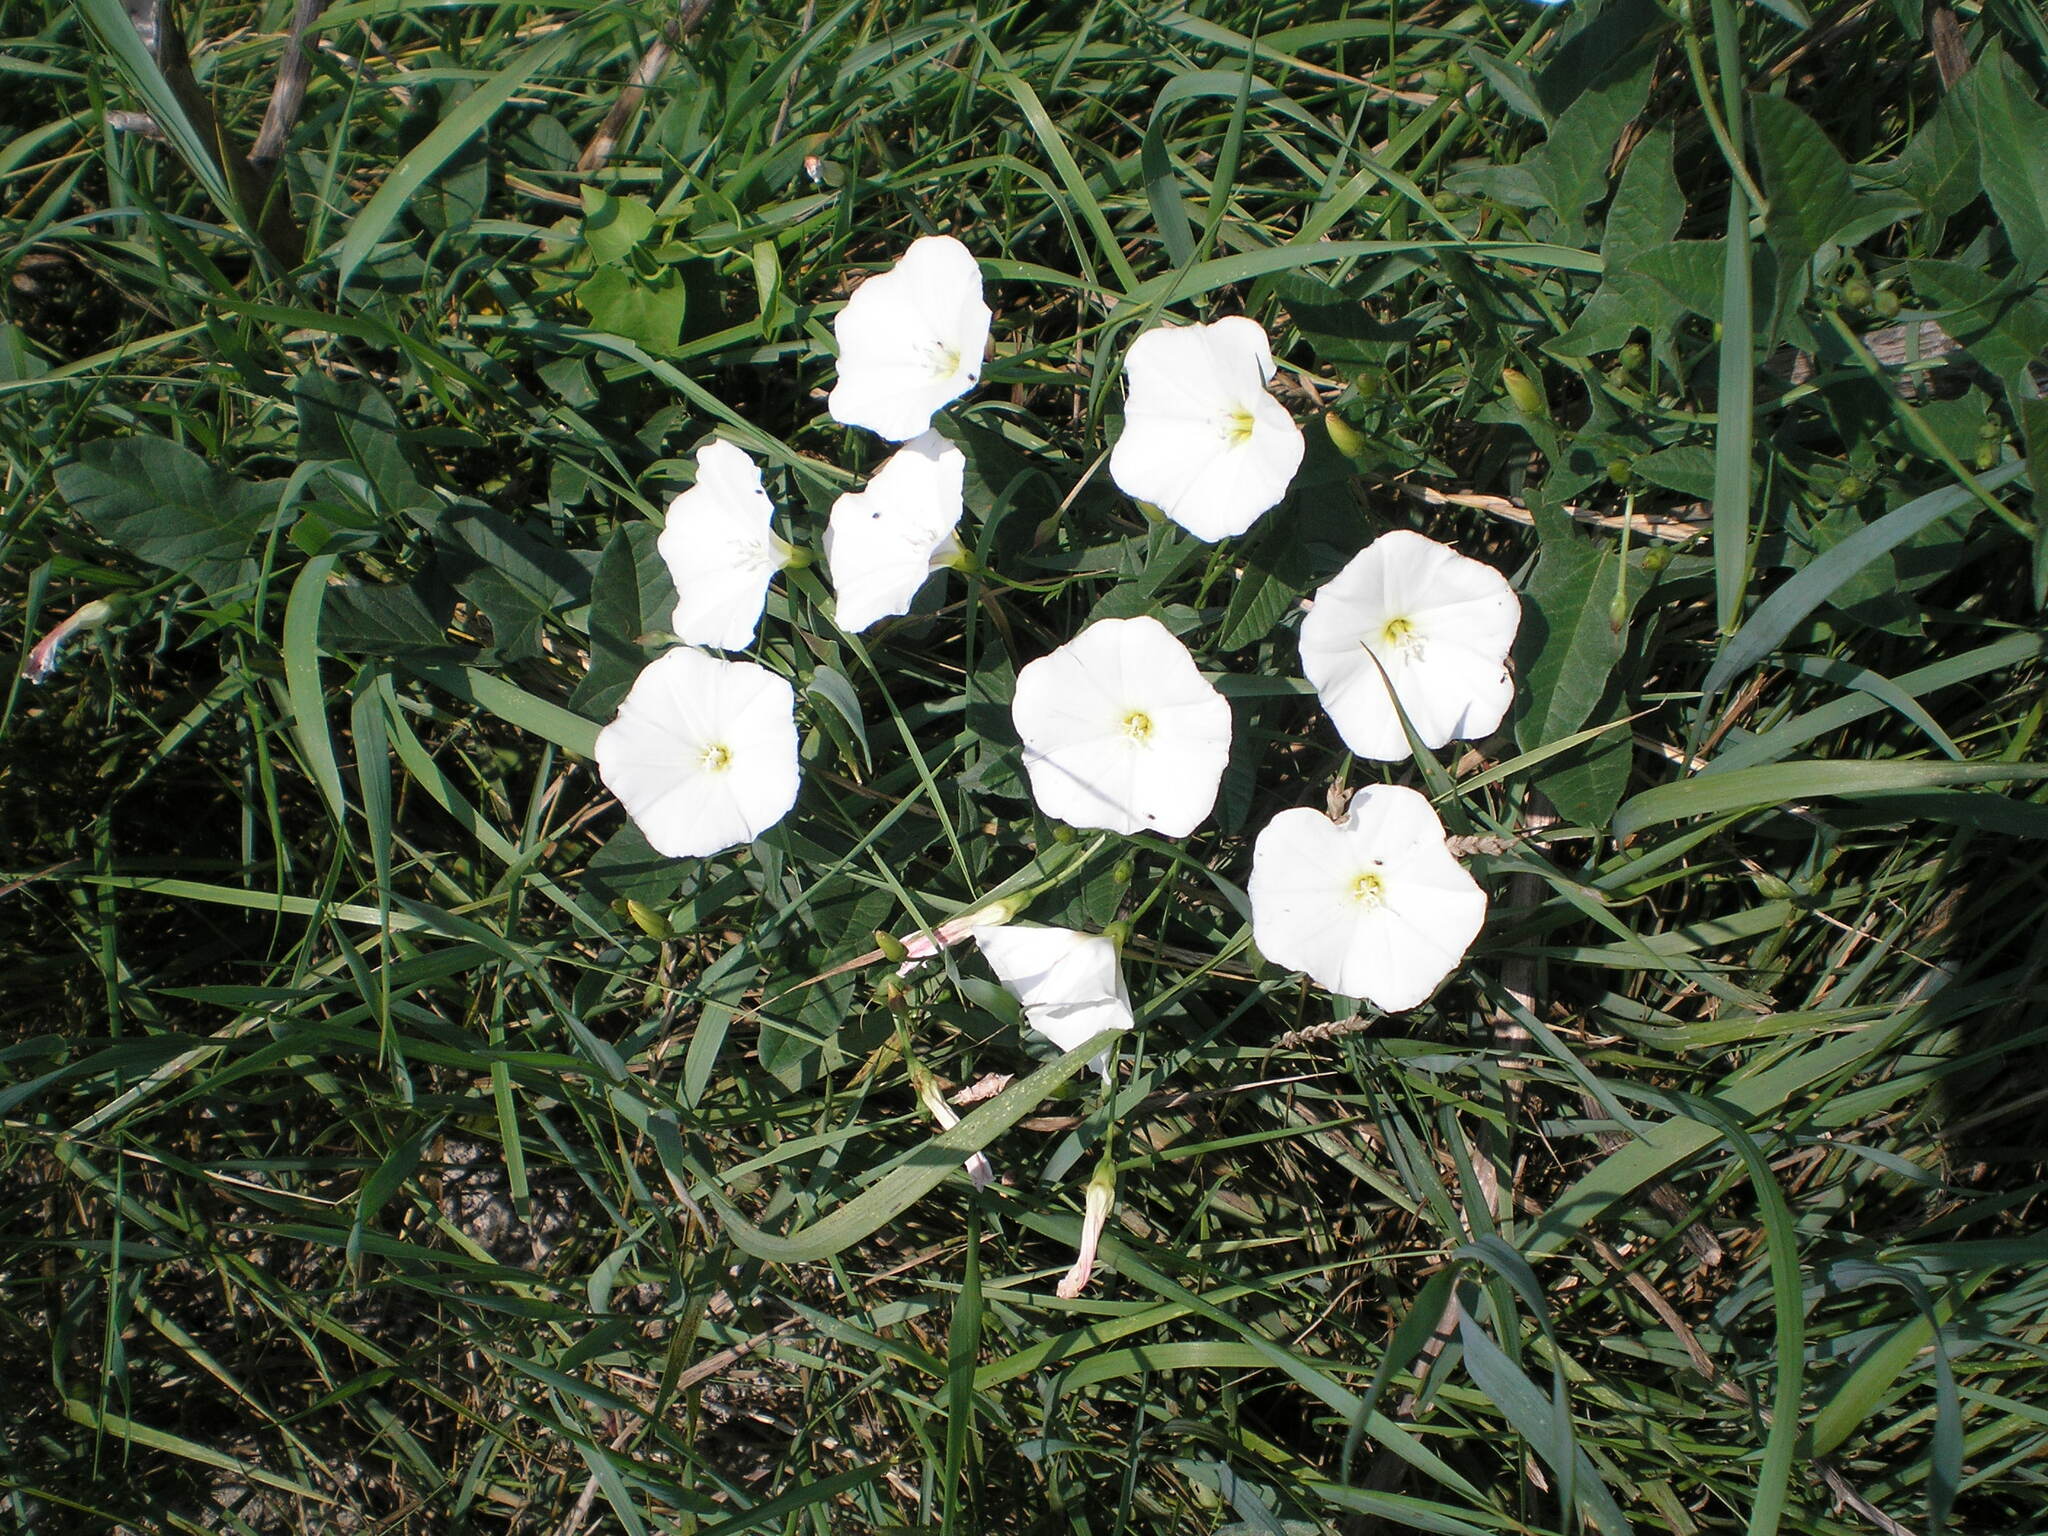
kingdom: Plantae
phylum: Tracheophyta
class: Magnoliopsida
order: Solanales
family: Convolvulaceae
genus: Convolvulus
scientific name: Convolvulus arvensis
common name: Field bindweed
